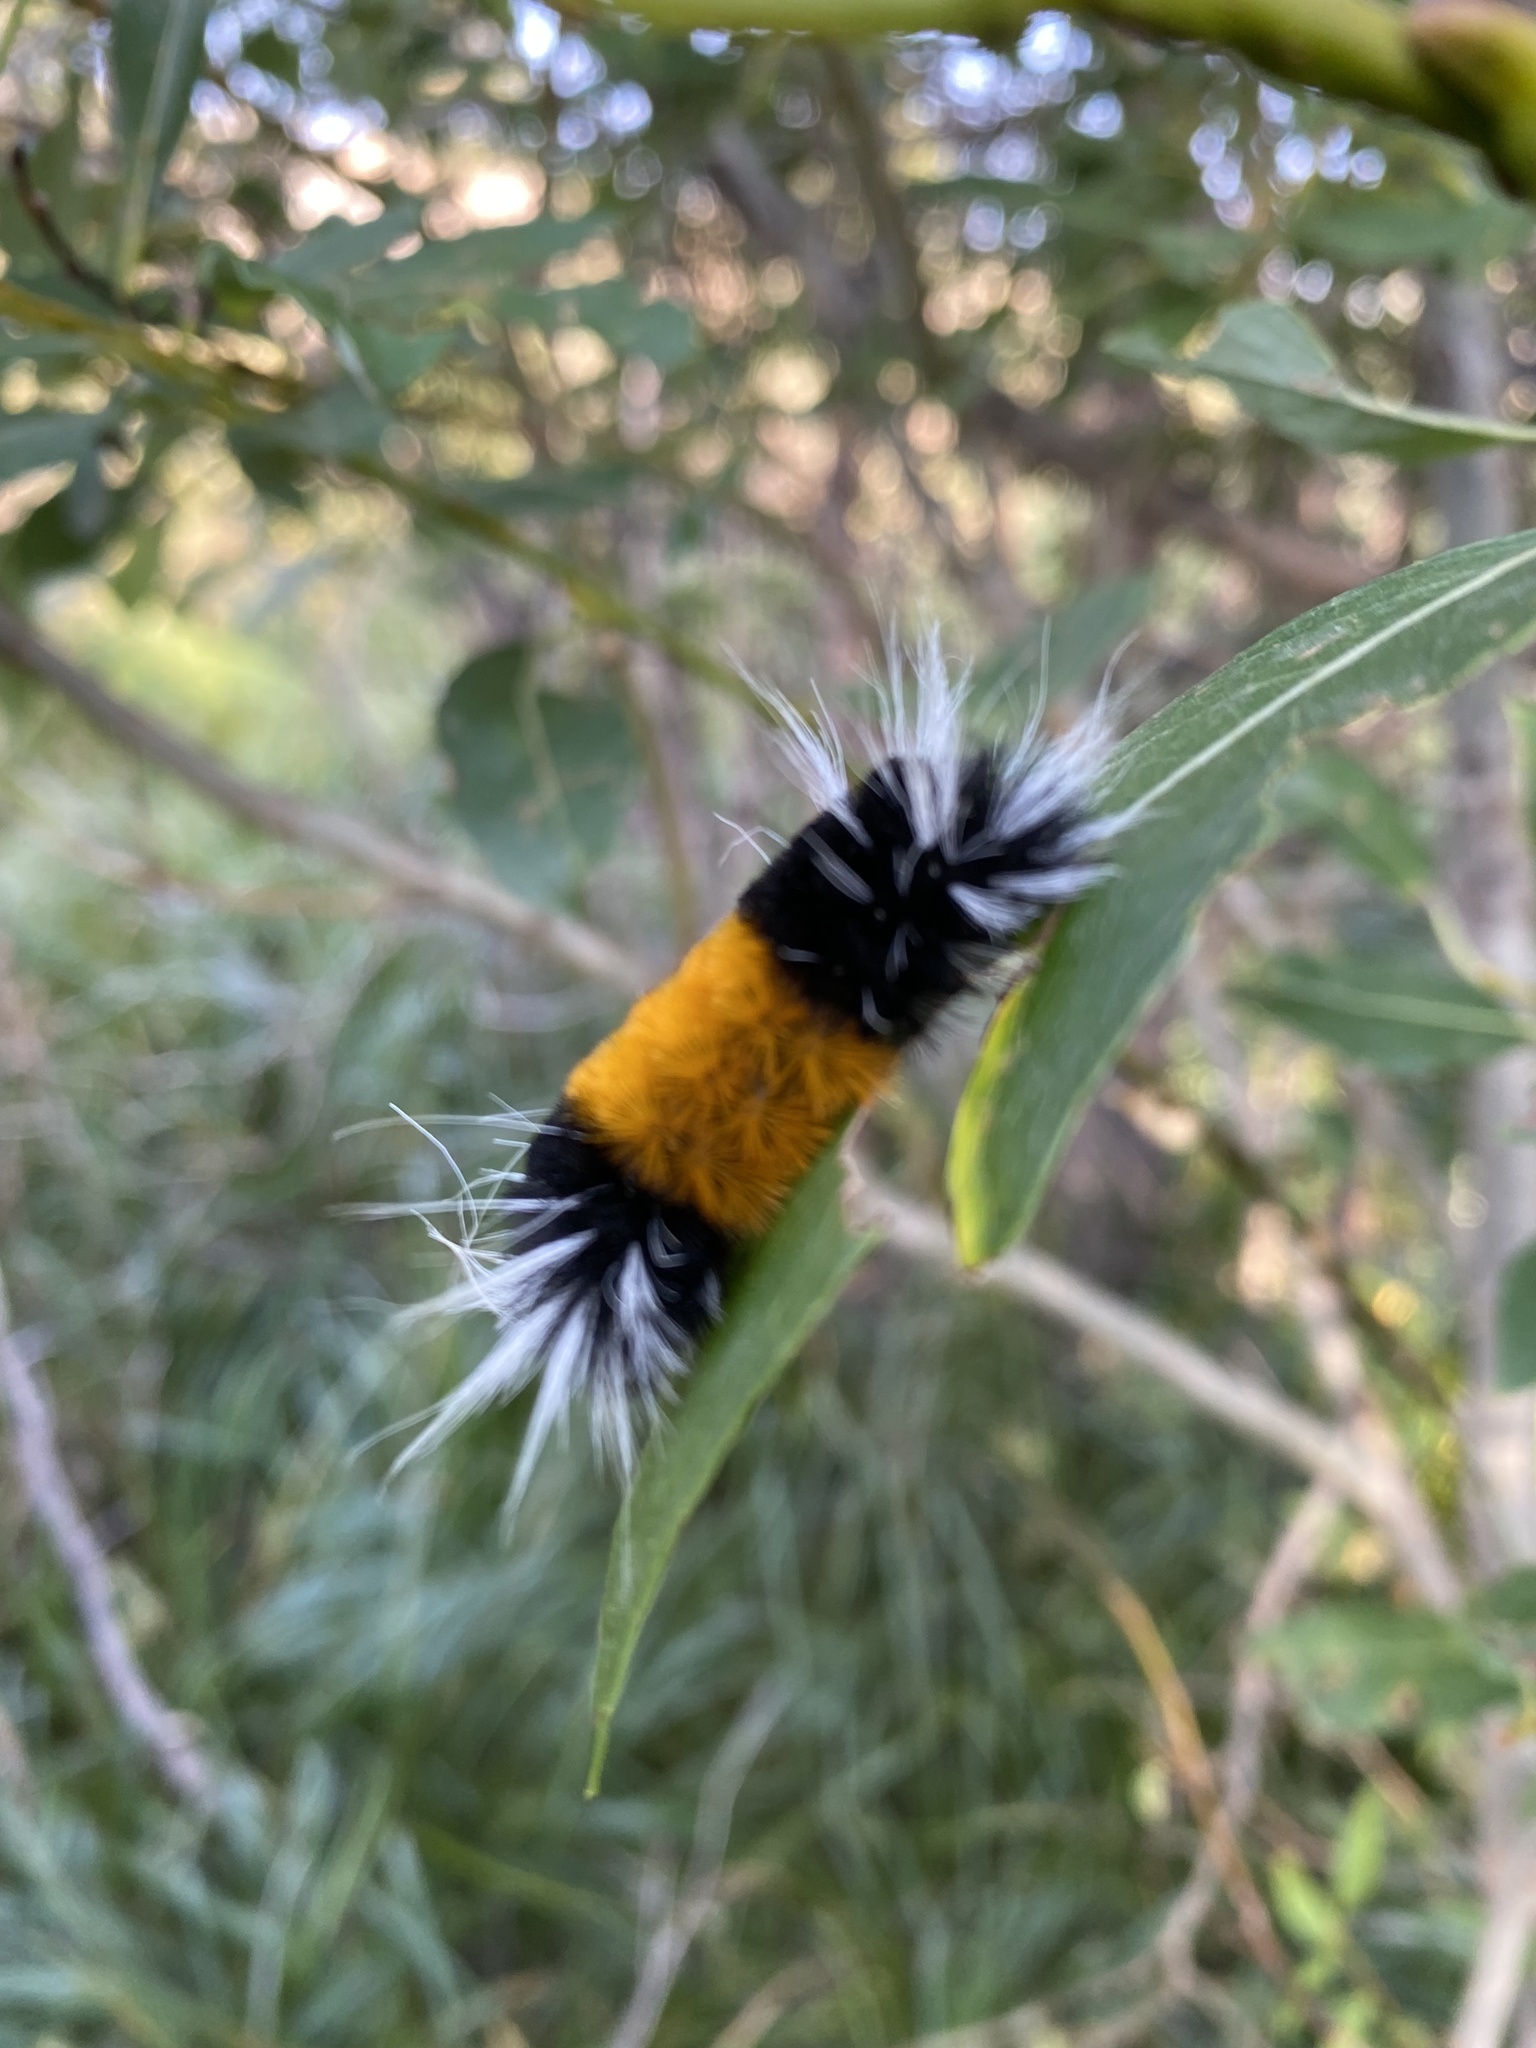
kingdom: Animalia
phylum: Arthropoda
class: Insecta
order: Lepidoptera
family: Erebidae
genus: Lophocampa
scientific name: Lophocampa maculata
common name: Spotted tussock moth
